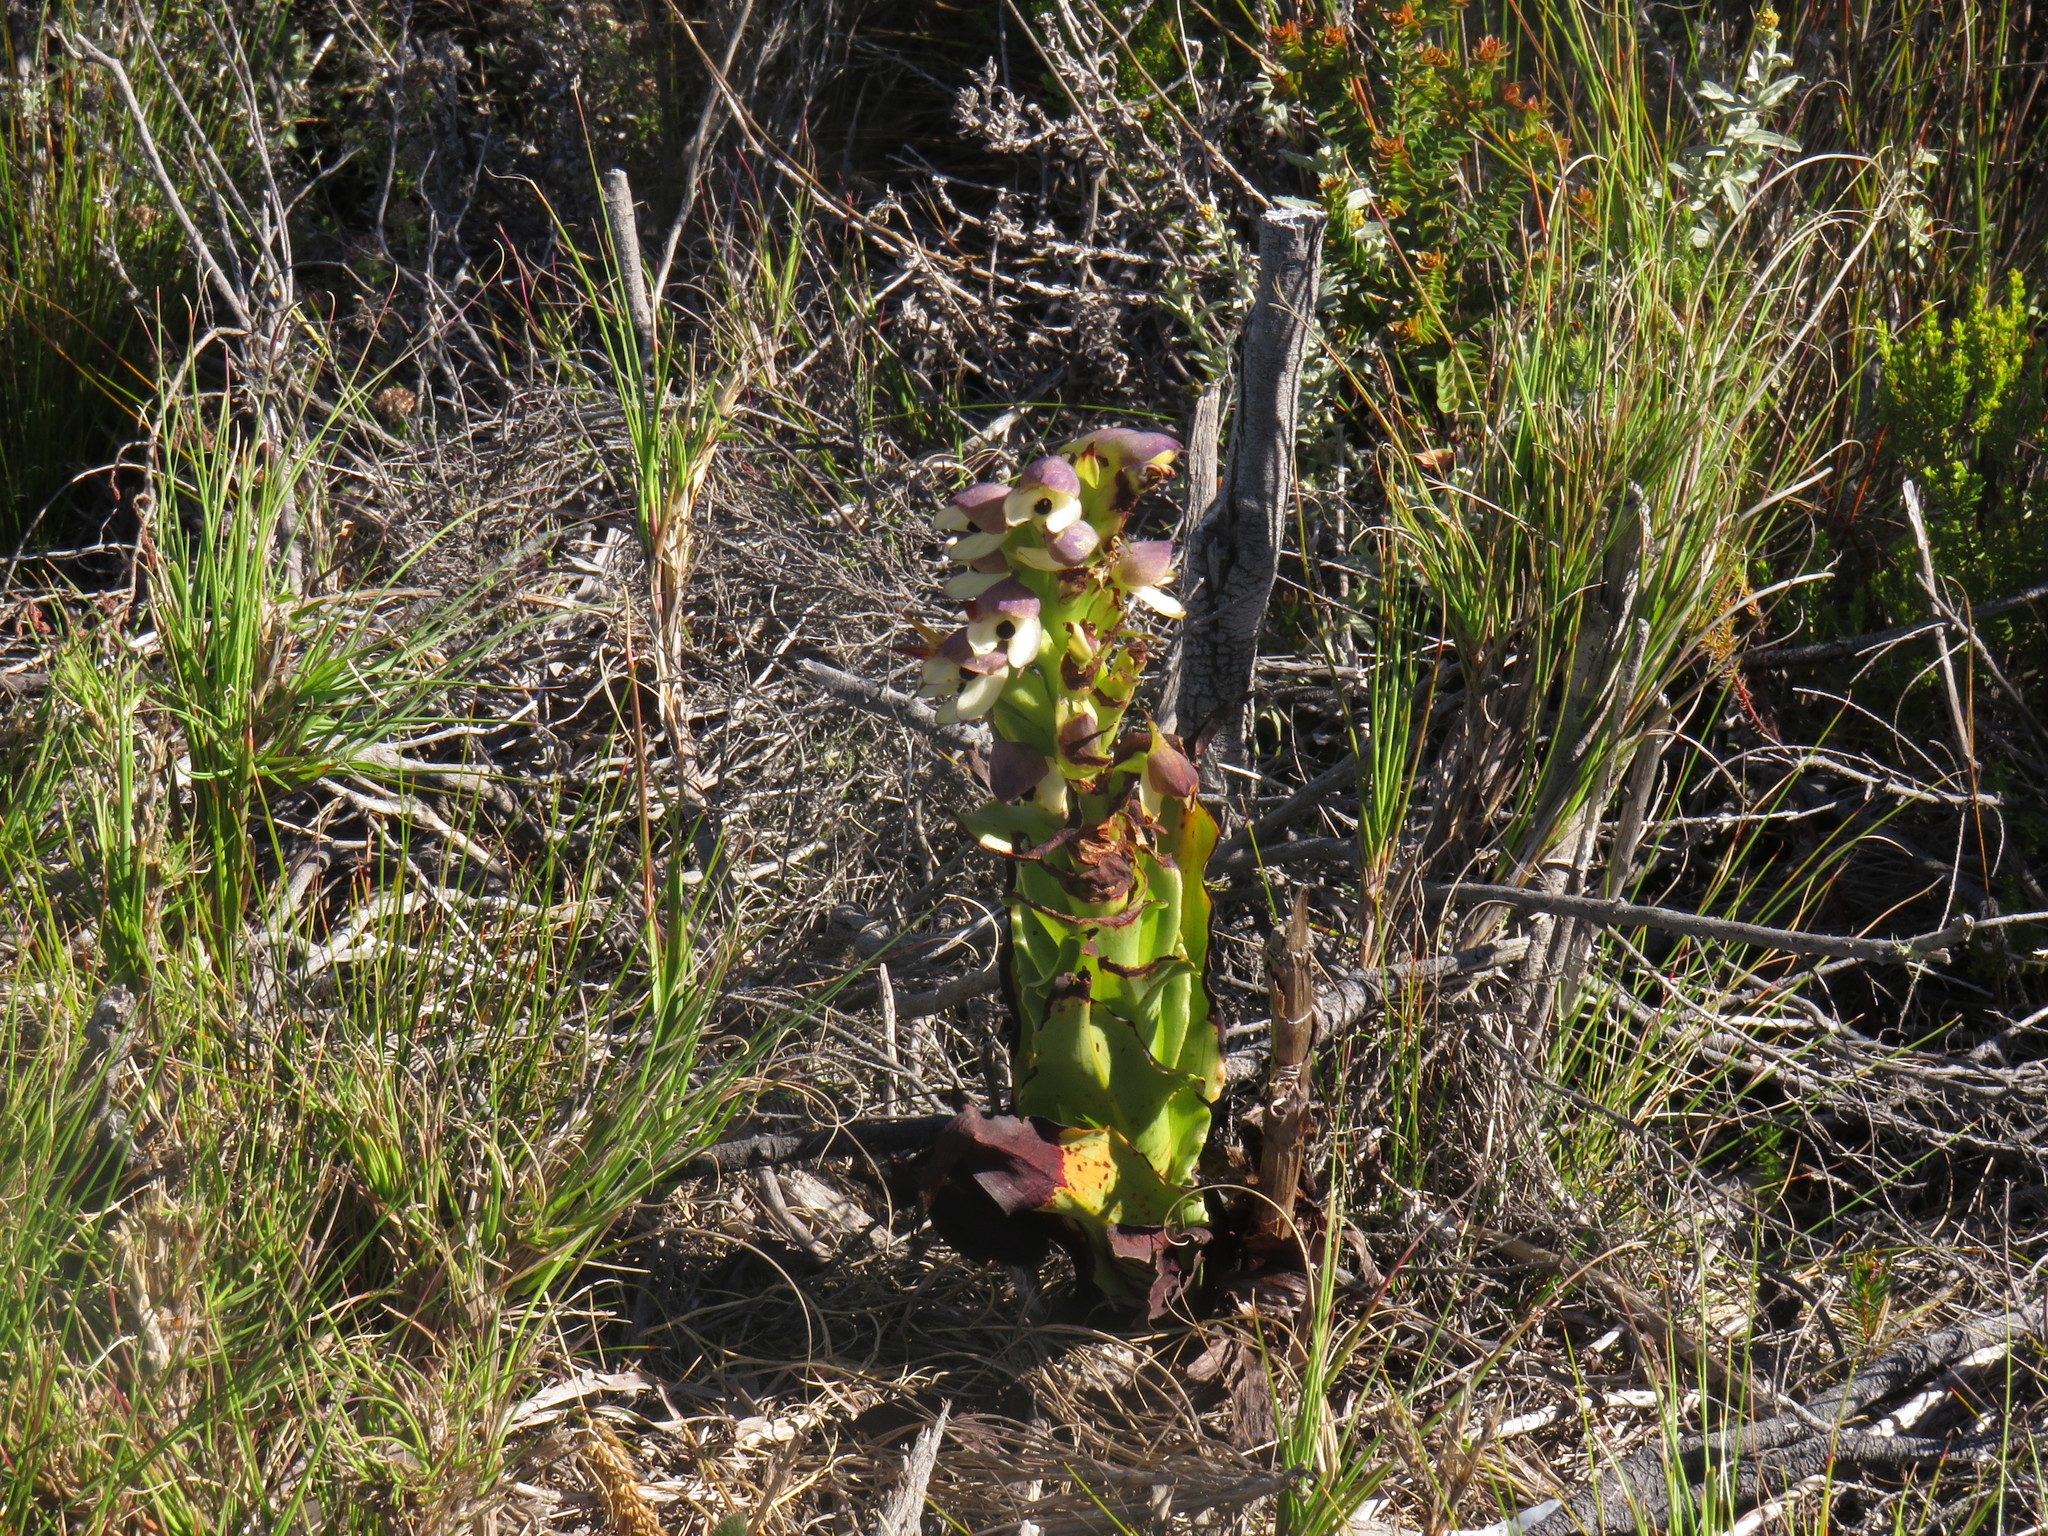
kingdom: Plantae
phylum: Tracheophyta
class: Liliopsida
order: Asparagales
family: Orchidaceae
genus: Disa
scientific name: Disa cornuta
